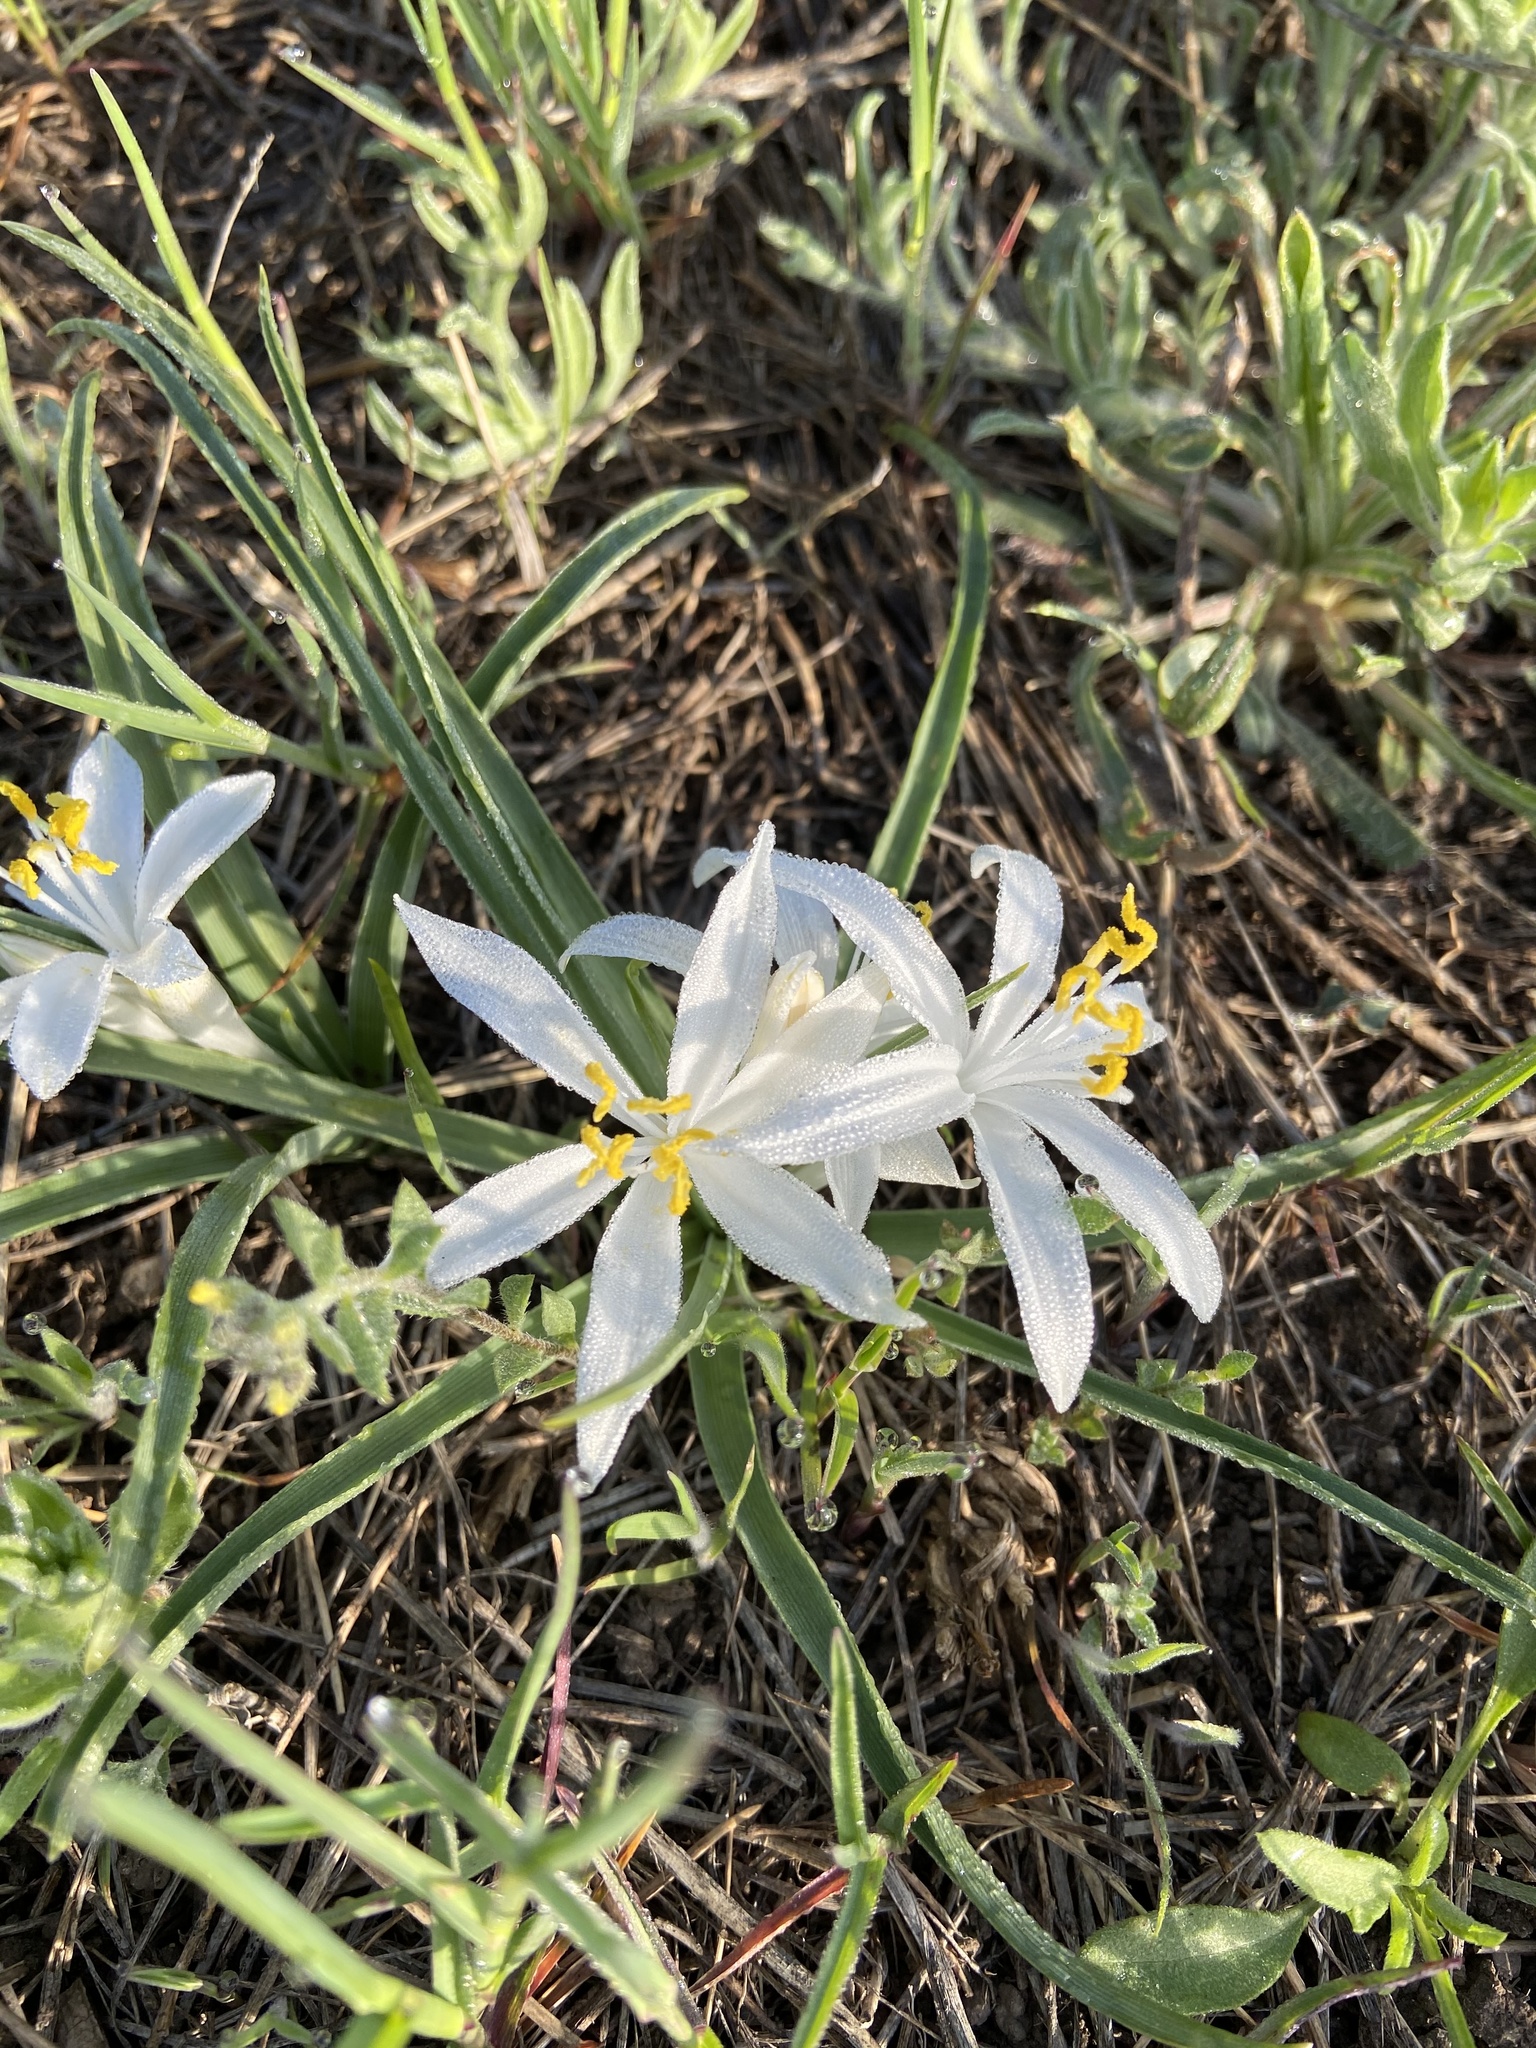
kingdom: Plantae
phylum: Tracheophyta
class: Liliopsida
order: Asparagales
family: Asparagaceae
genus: Leucocrinum
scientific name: Leucocrinum montanum
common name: Mountain-lily
